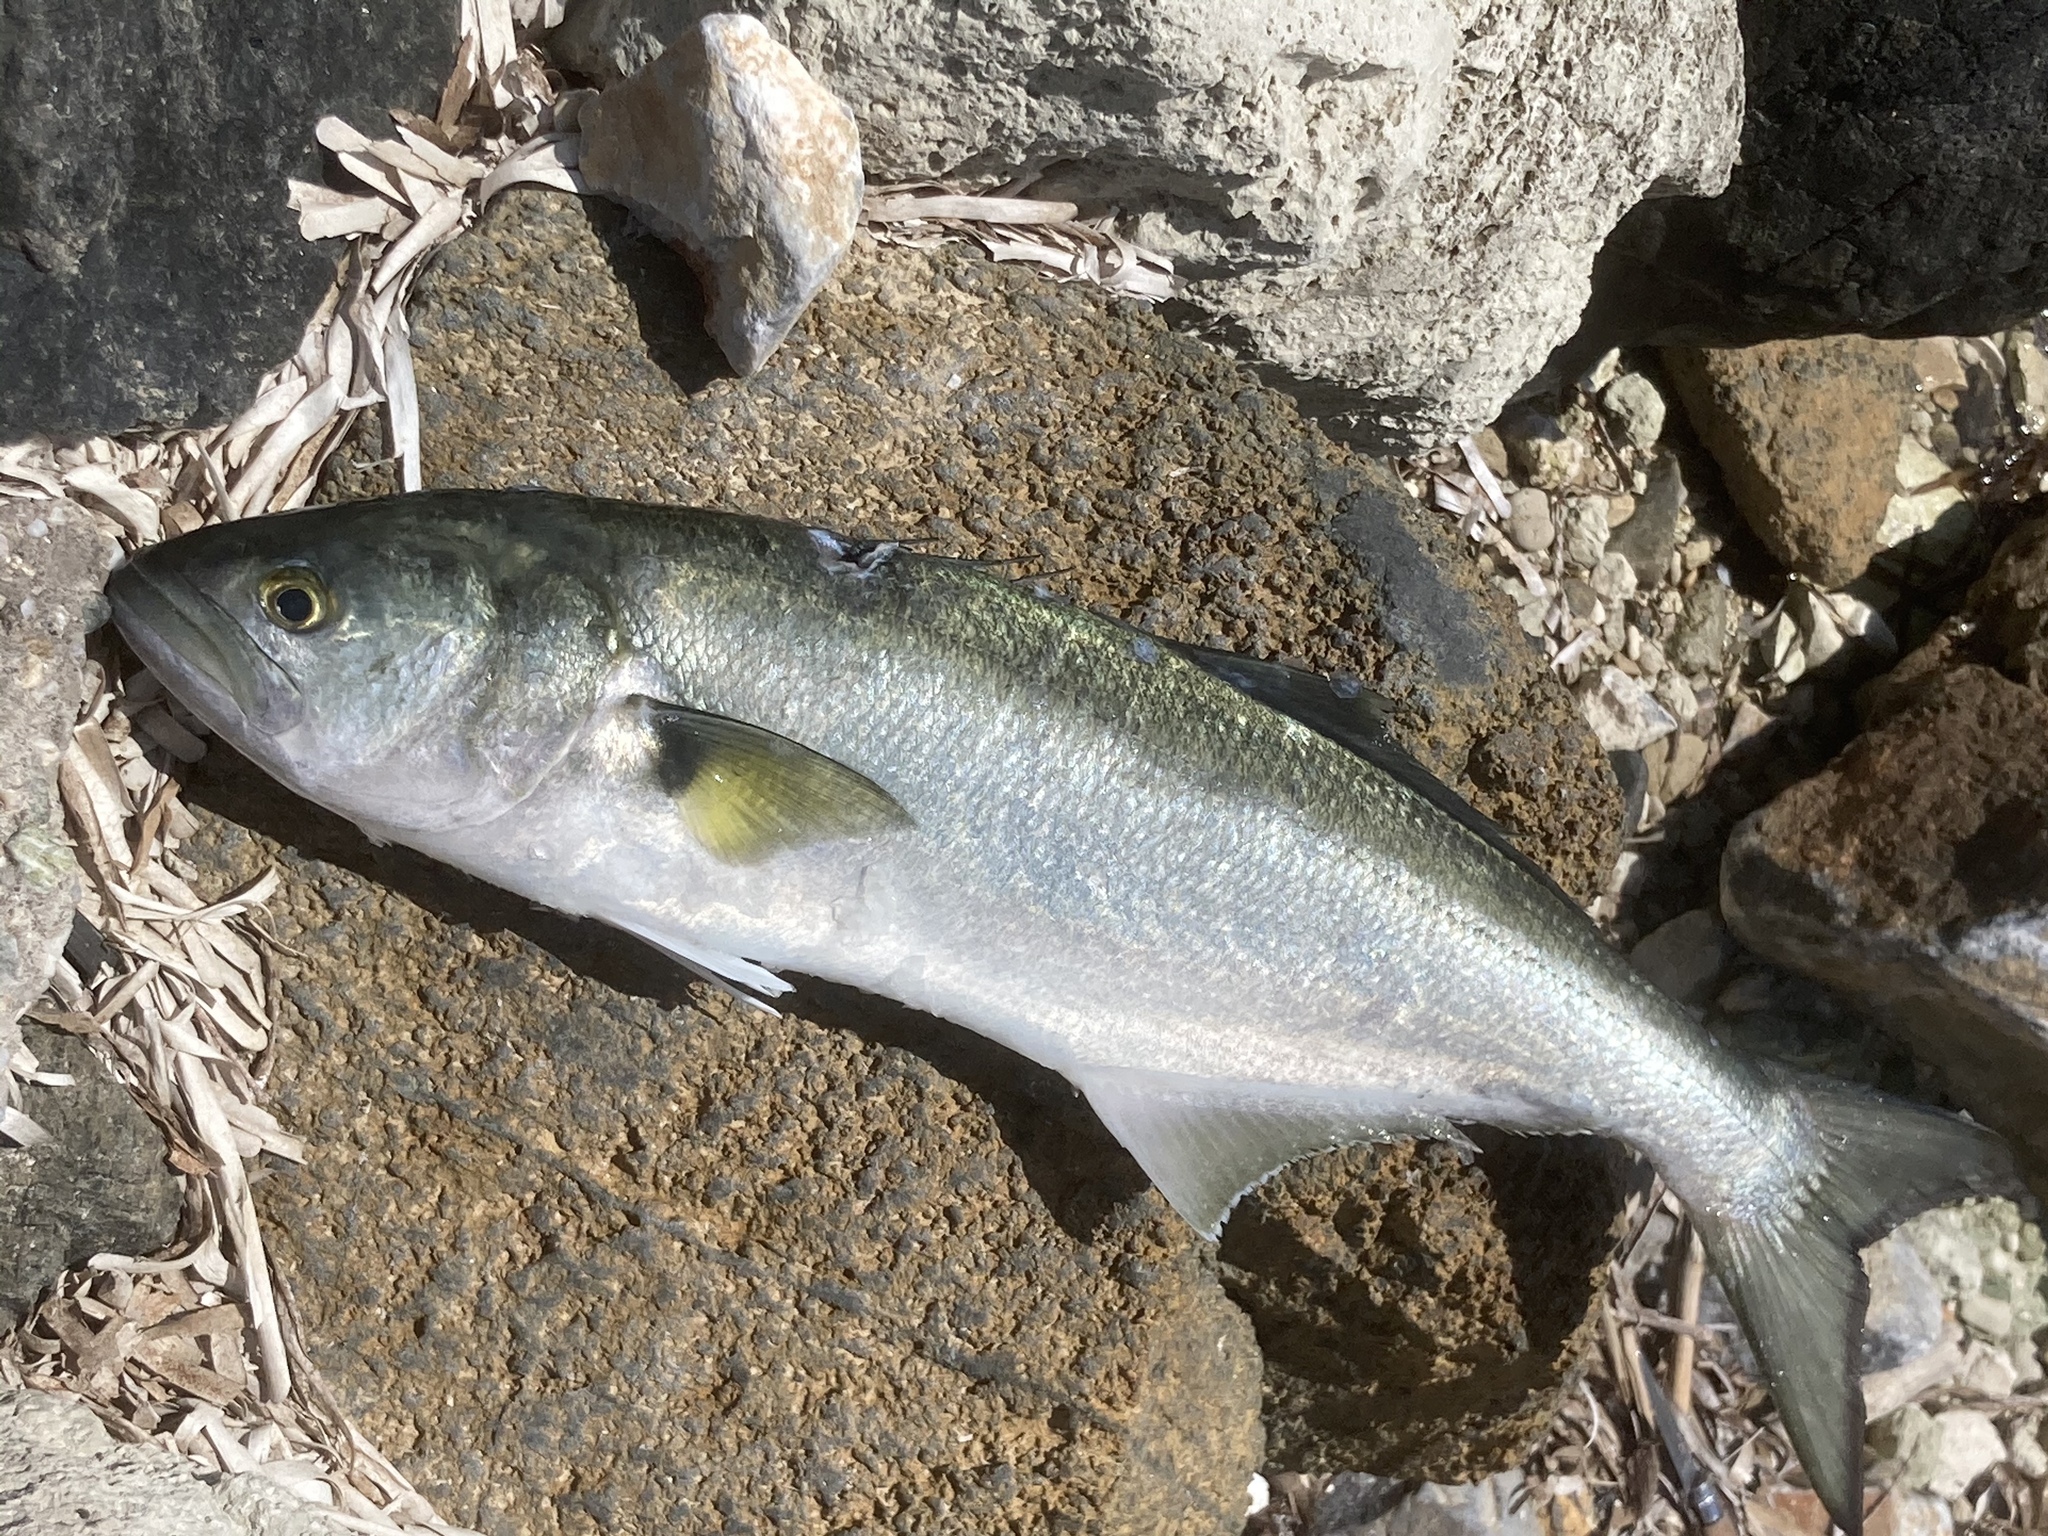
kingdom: Animalia
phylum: Chordata
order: Perciformes
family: Pomatomidae
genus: Pomatomus
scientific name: Pomatomus saltatrix
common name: Bluefish
